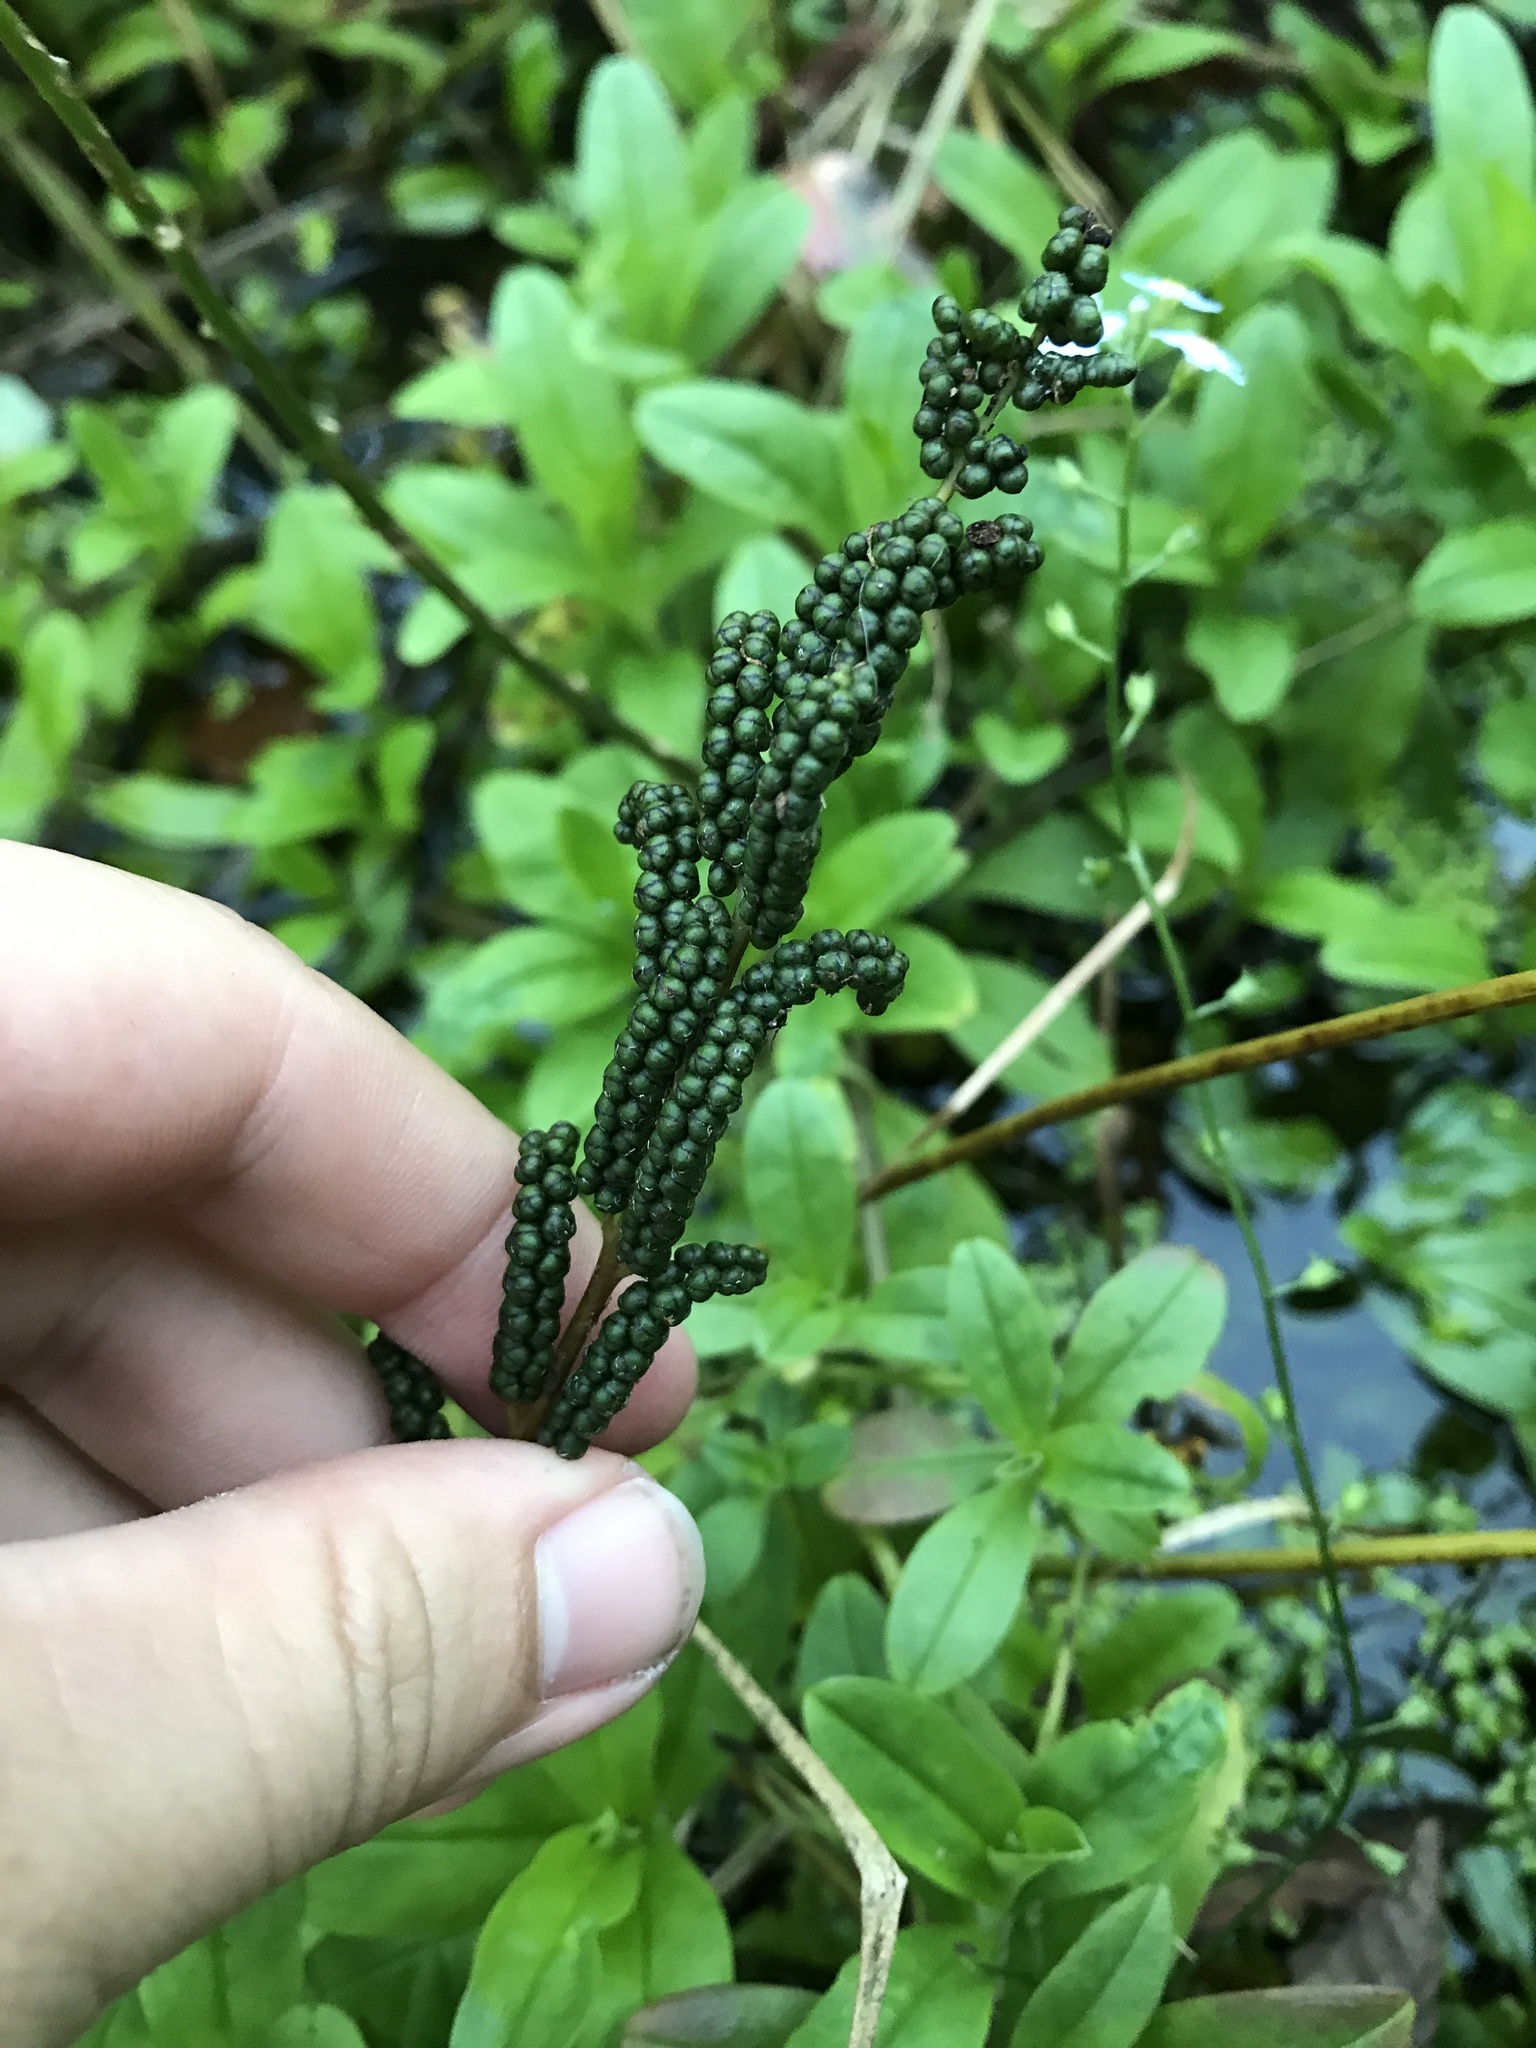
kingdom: Plantae
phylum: Tracheophyta
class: Polypodiopsida
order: Polypodiales
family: Onocleaceae
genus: Onoclea
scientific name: Onoclea sensibilis
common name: Sensitive fern
